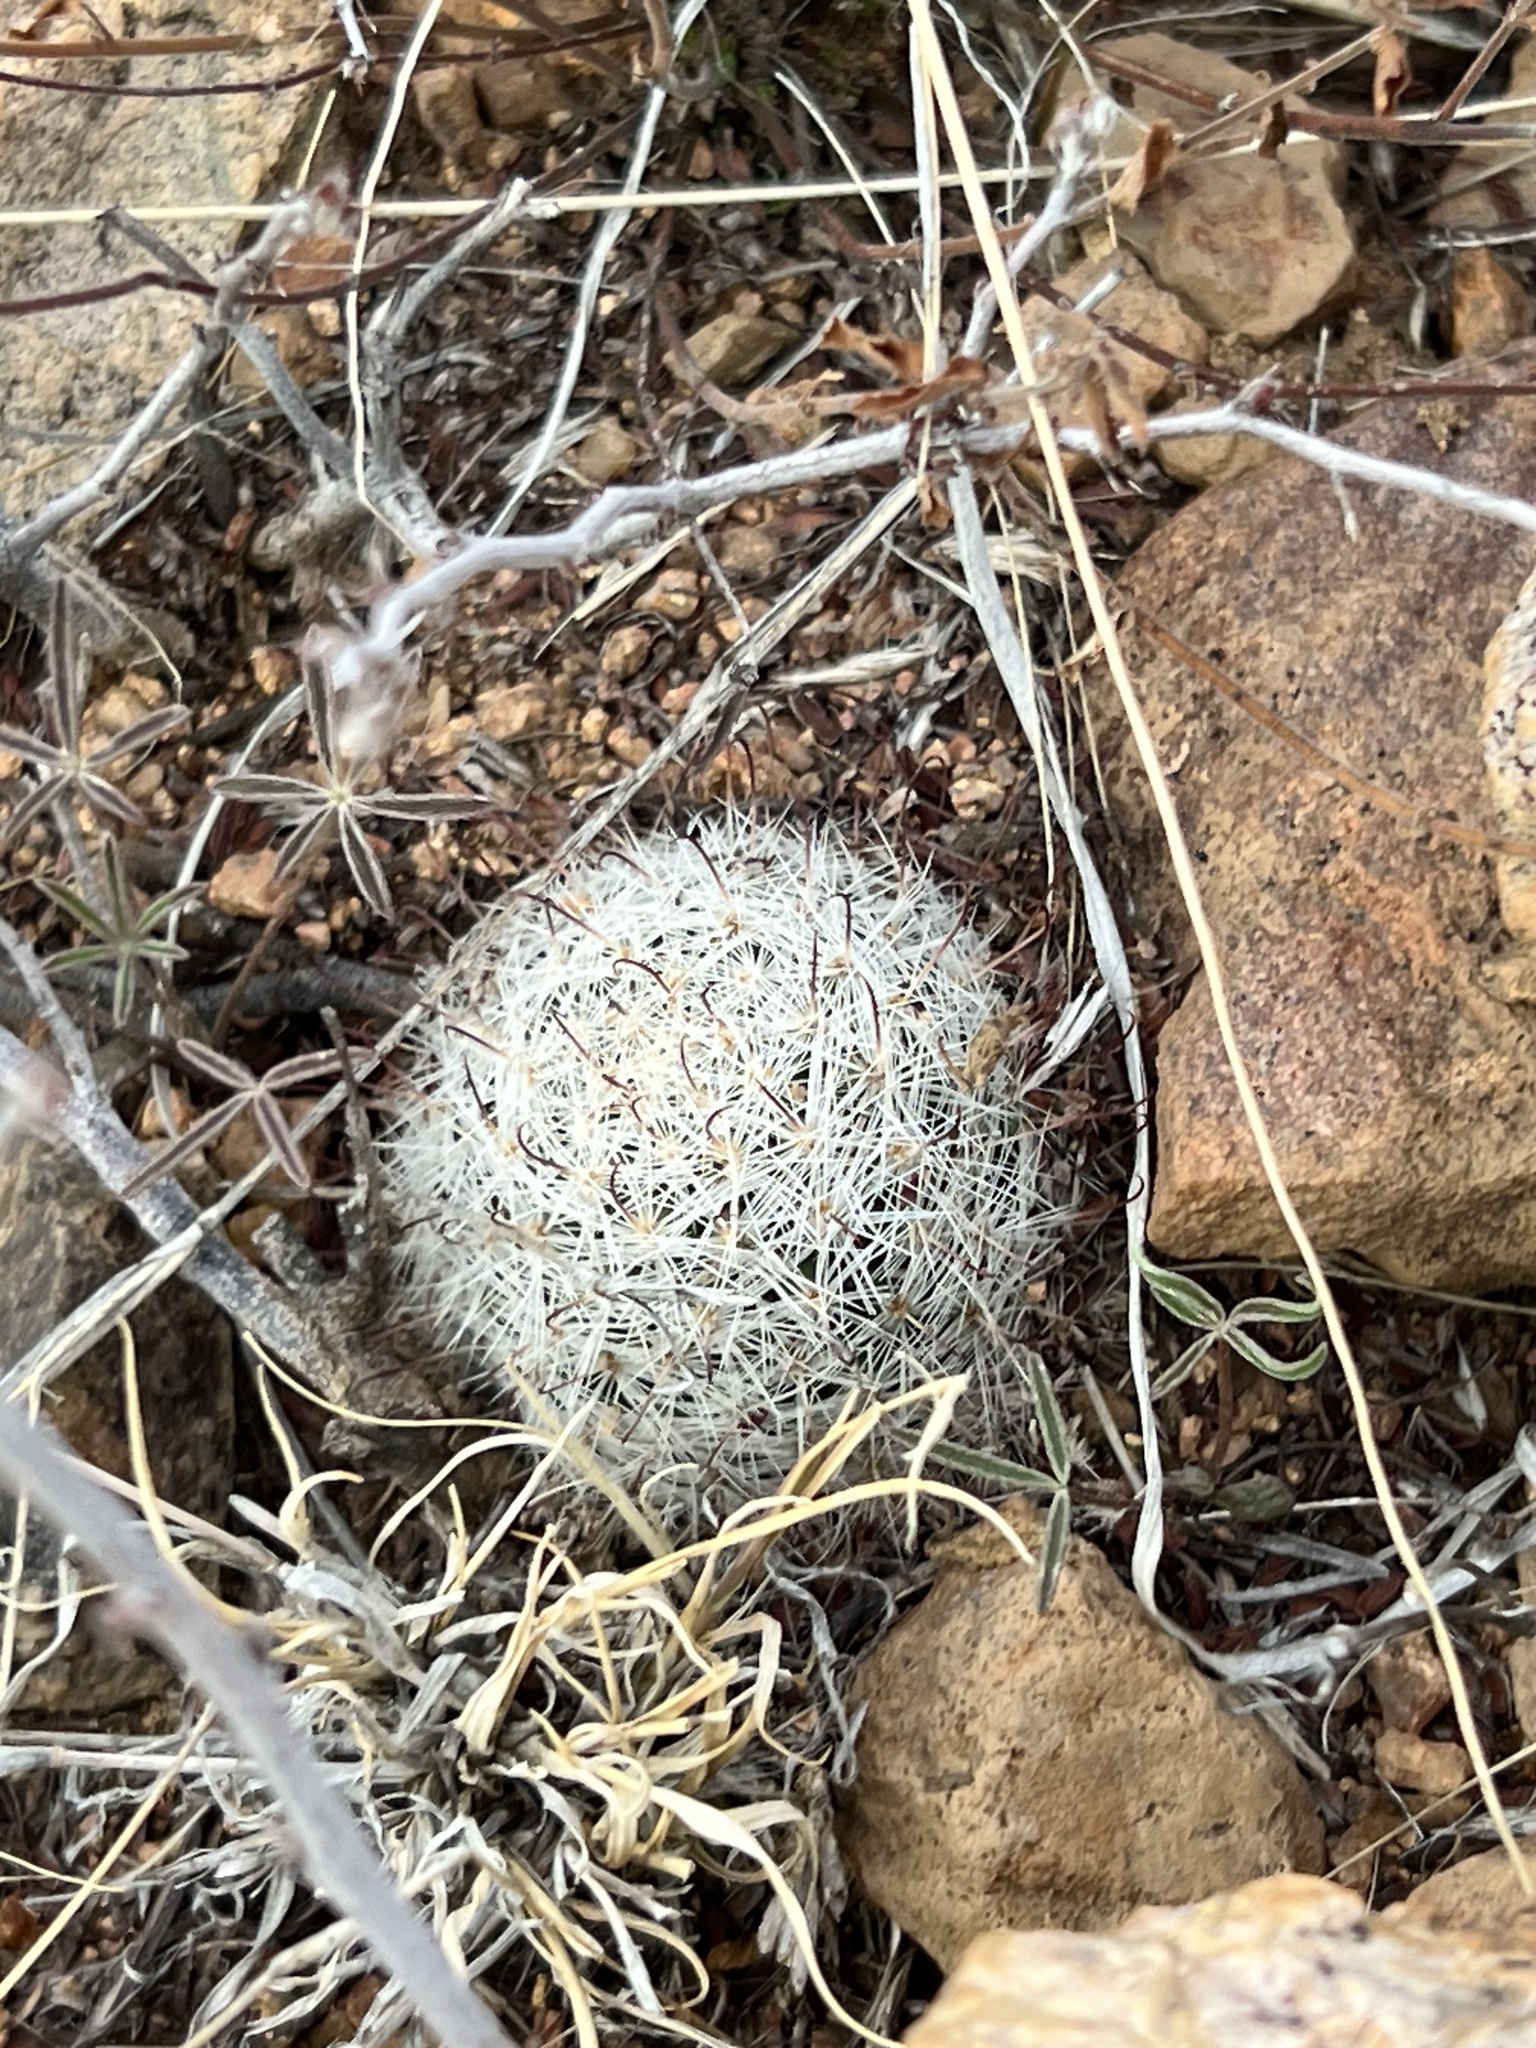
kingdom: Plantae
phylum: Tracheophyta
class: Magnoliopsida
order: Caryophyllales
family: Cactaceae
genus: Cochemiea
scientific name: Cochemiea grahamii
